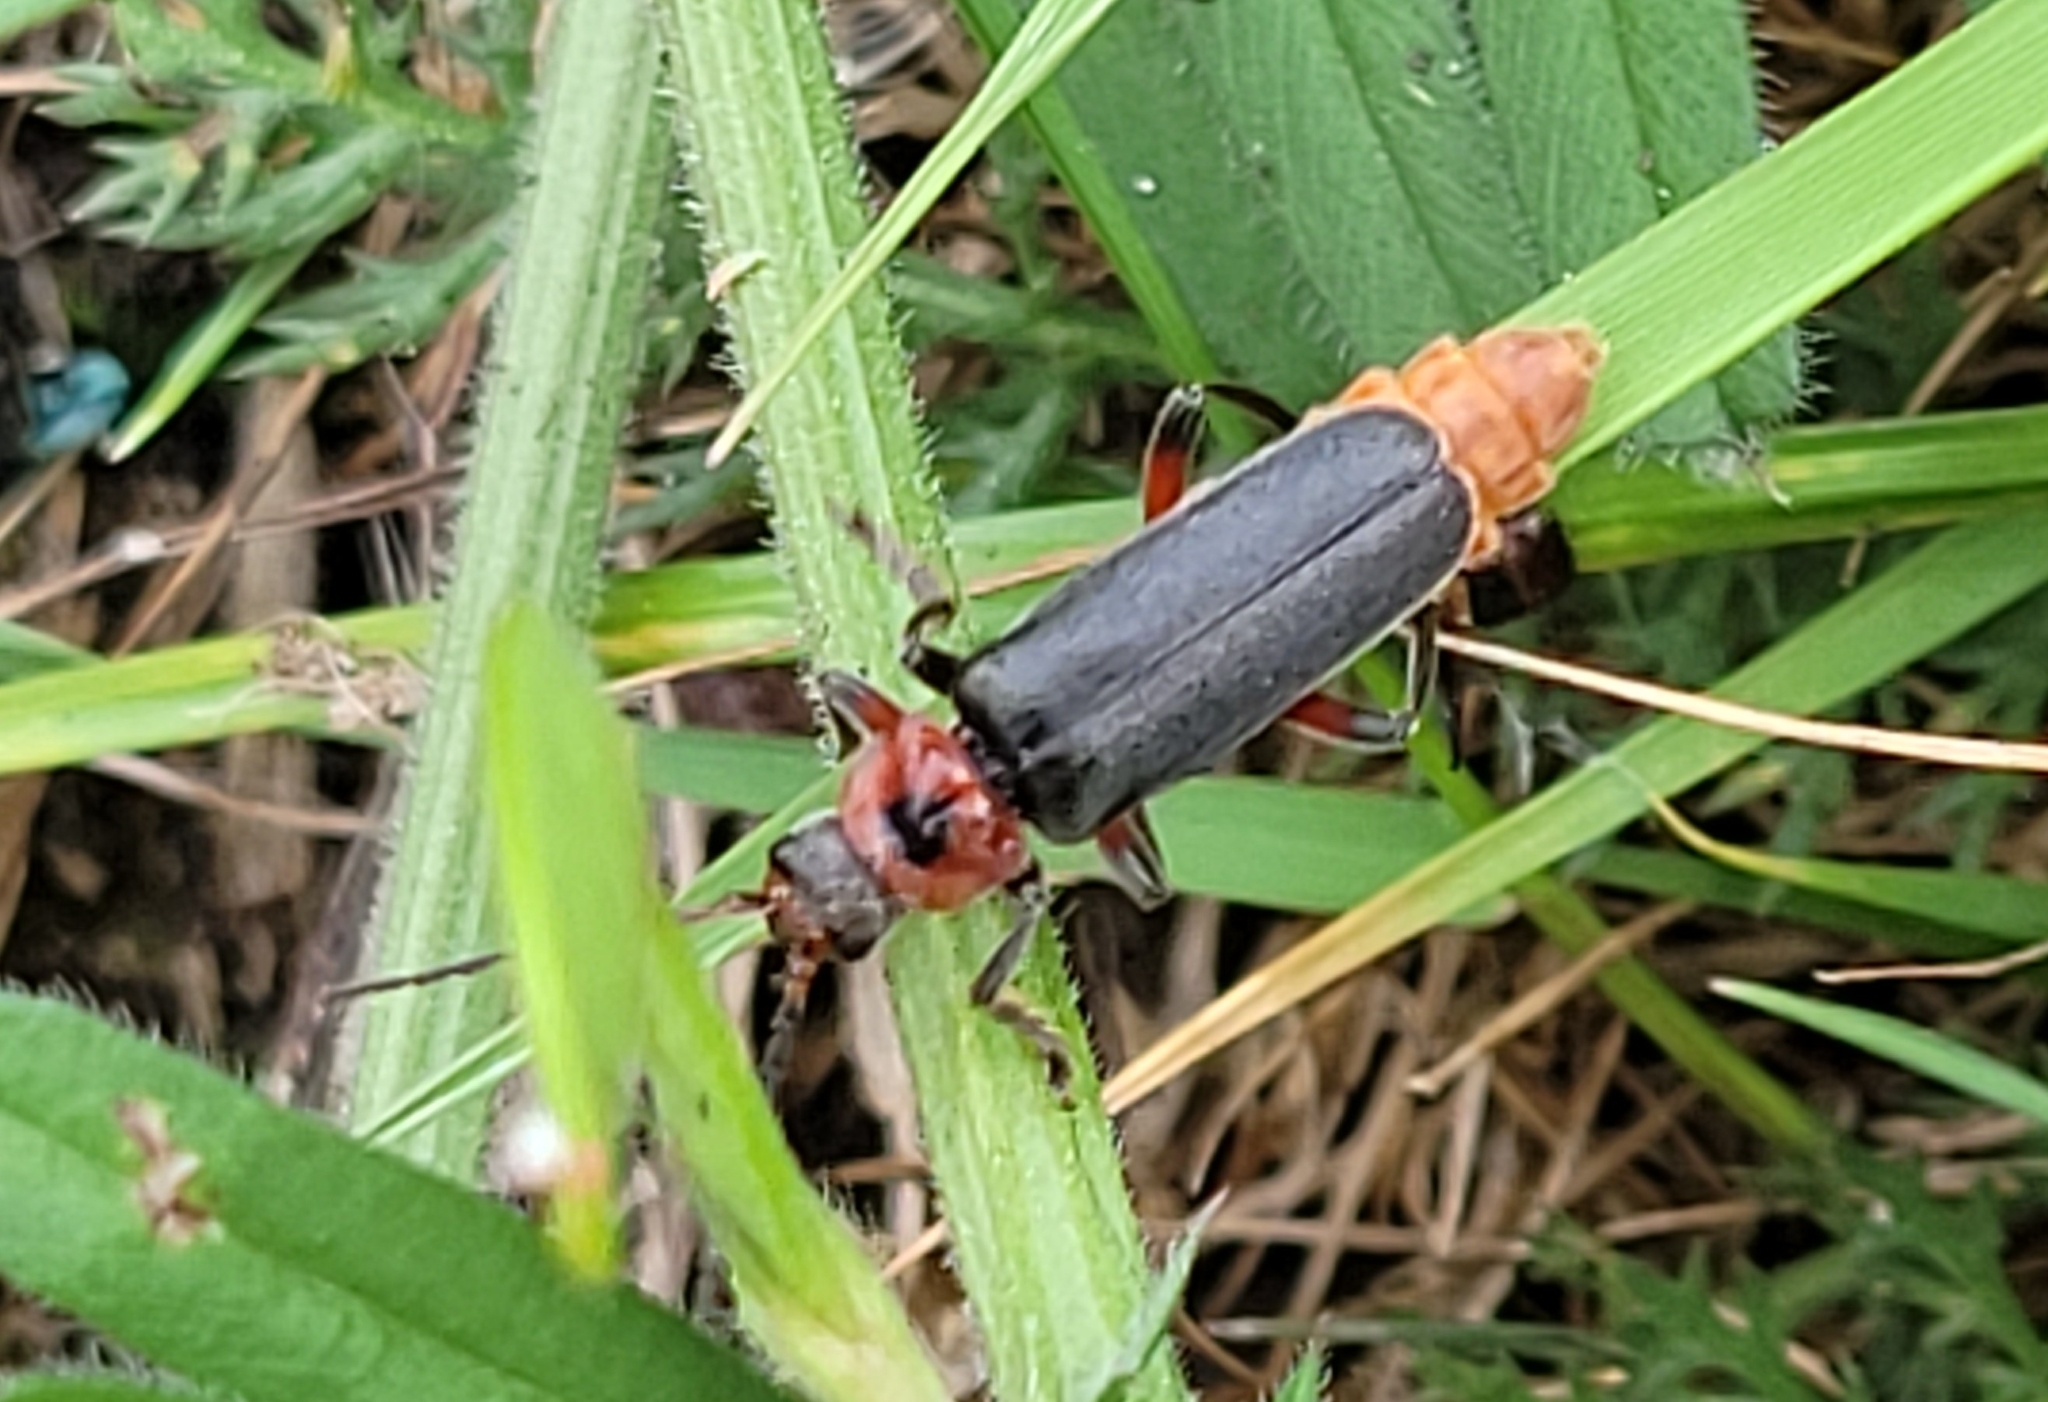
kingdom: Animalia
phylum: Arthropoda
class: Insecta
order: Coleoptera
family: Cantharidae
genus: Cantharis
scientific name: Cantharis rustica
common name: Soldier beetle
